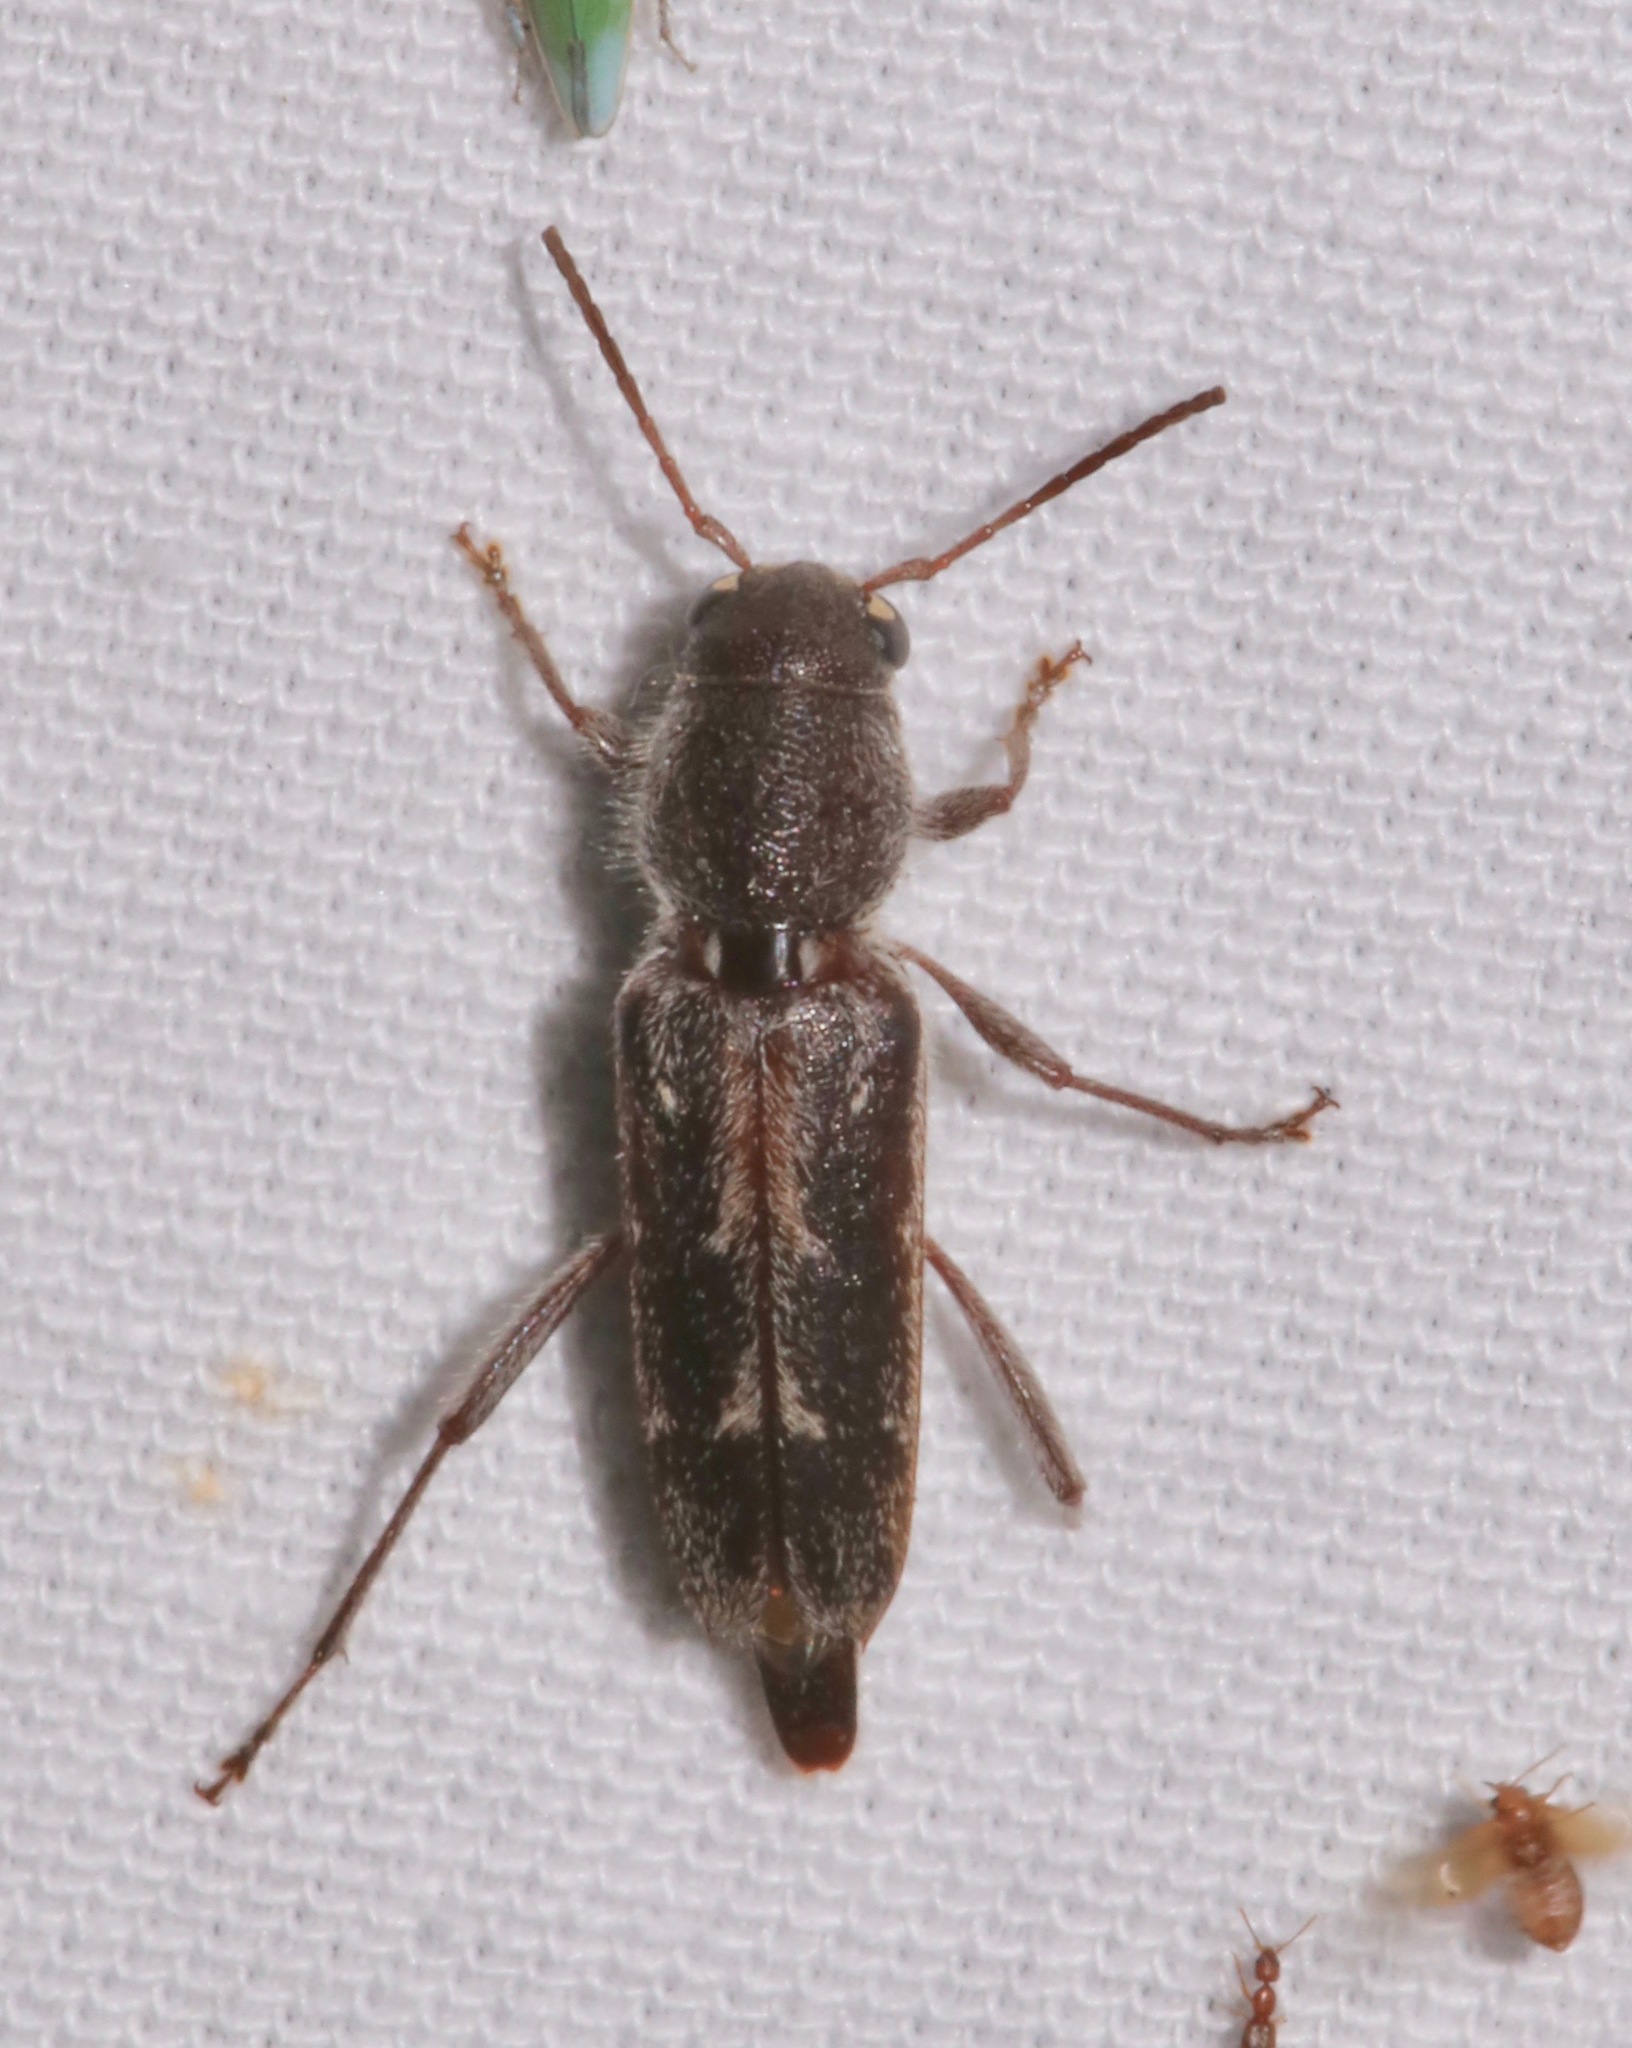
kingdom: Animalia
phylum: Arthropoda
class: Insecta
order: Coleoptera
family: Cerambycidae
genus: Xylotrechus
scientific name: Xylotrechus sagittatus
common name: Arrowhead borer
